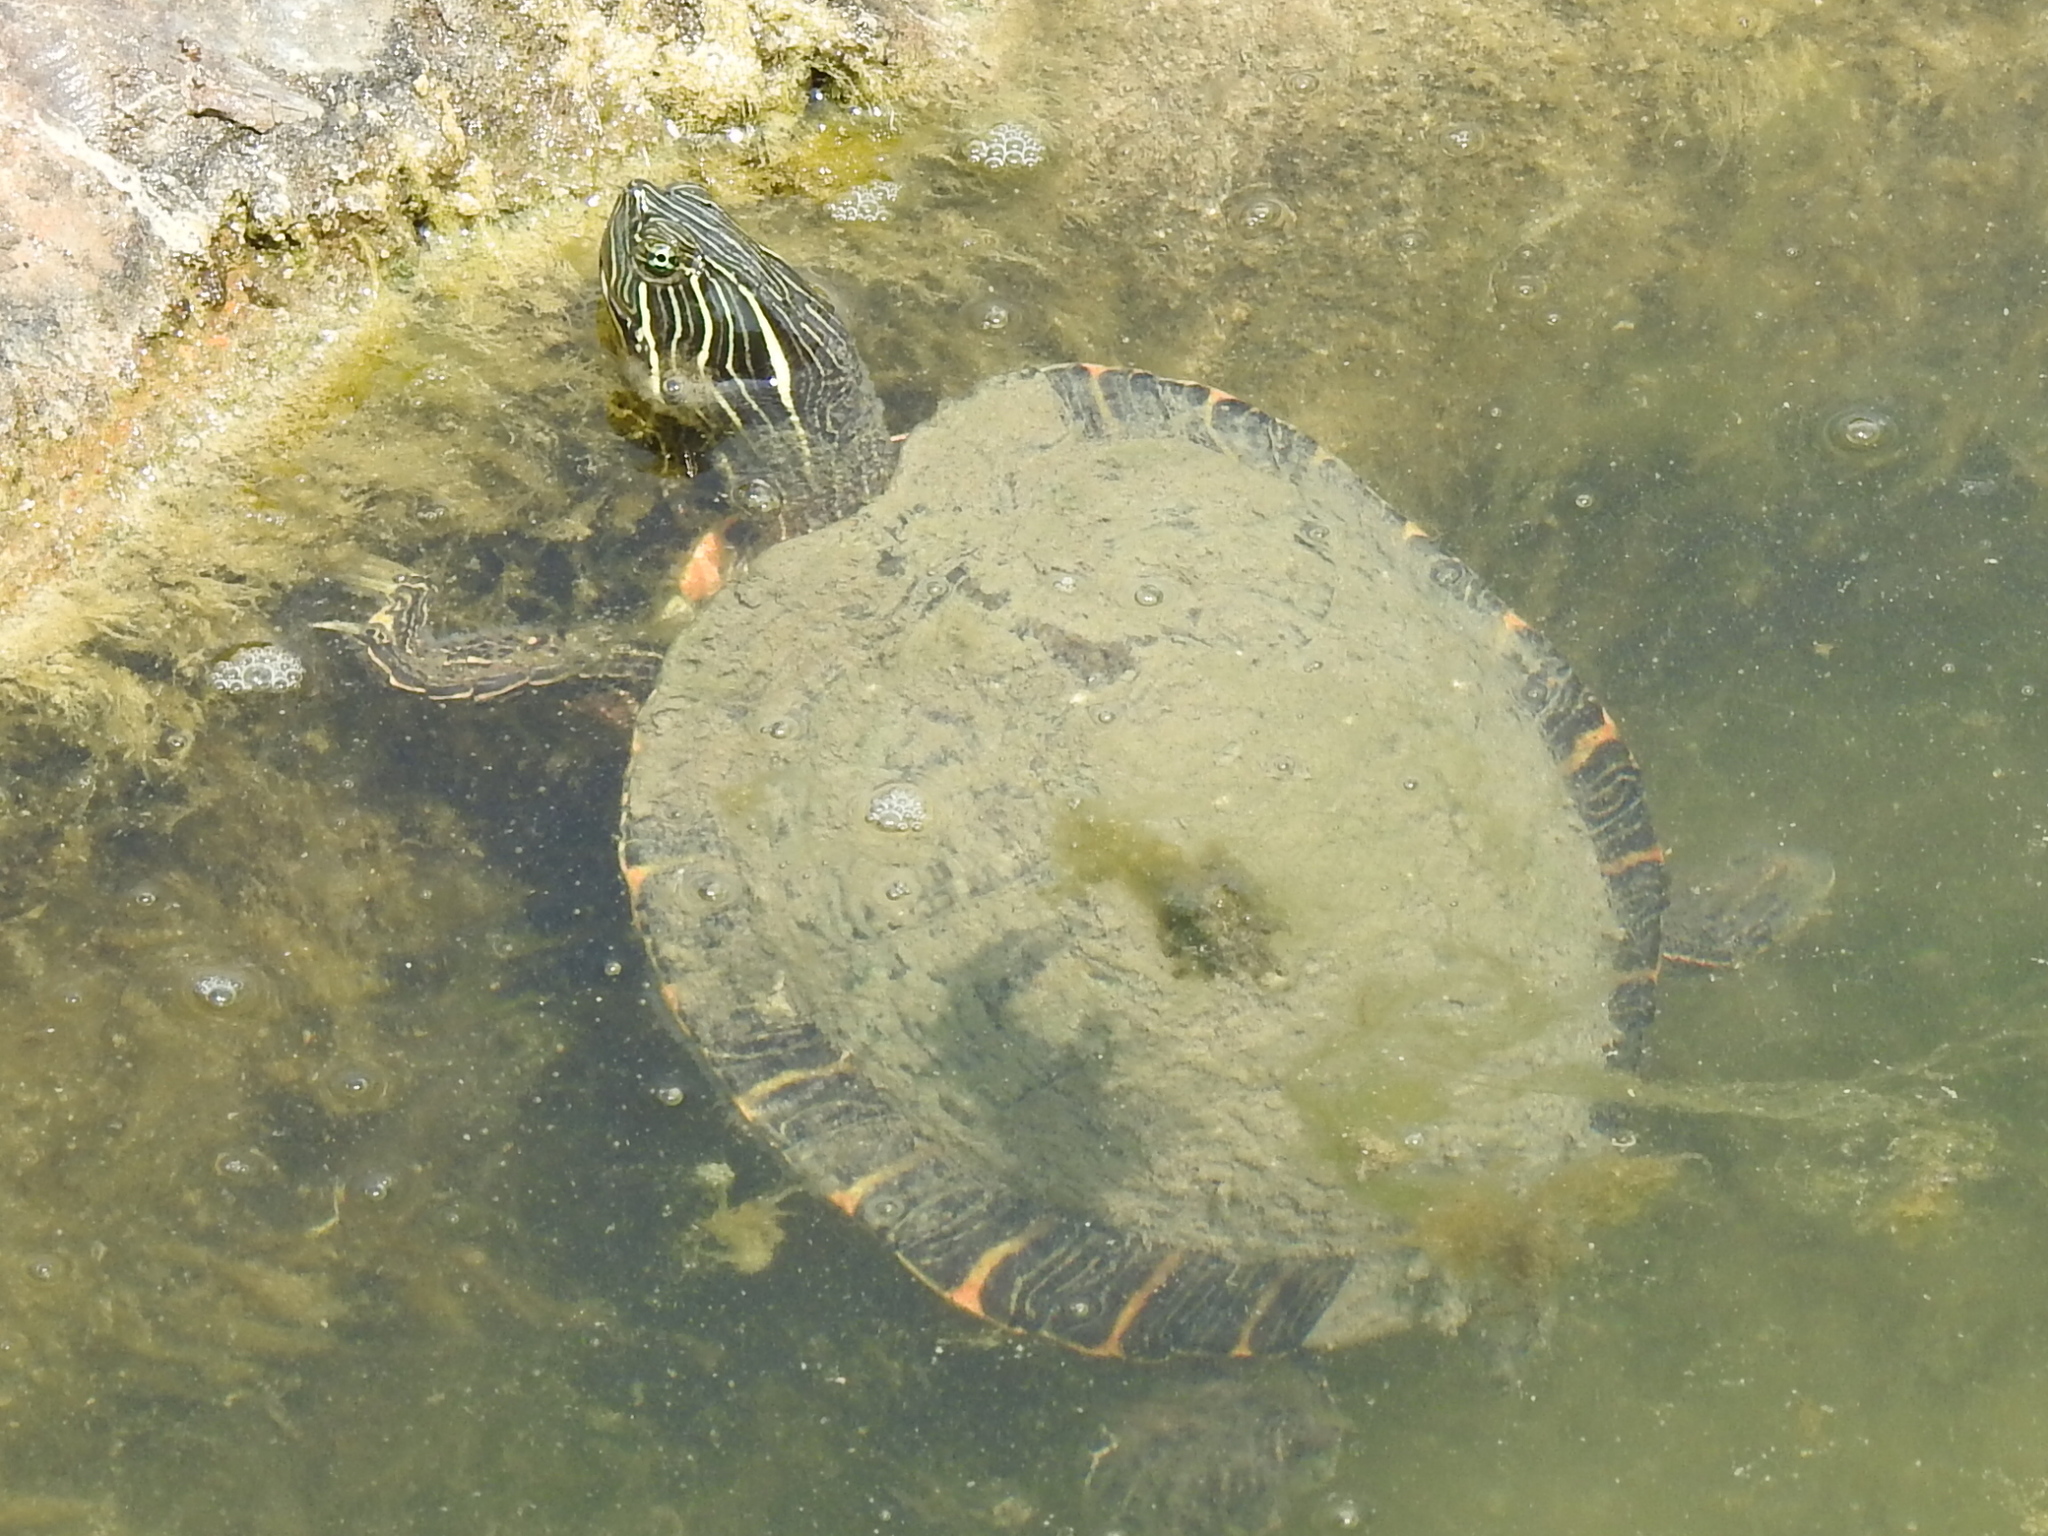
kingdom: Animalia
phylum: Chordata
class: Testudines
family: Emydidae
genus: Pseudemys
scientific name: Pseudemys concinna
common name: Eastern river cooter
